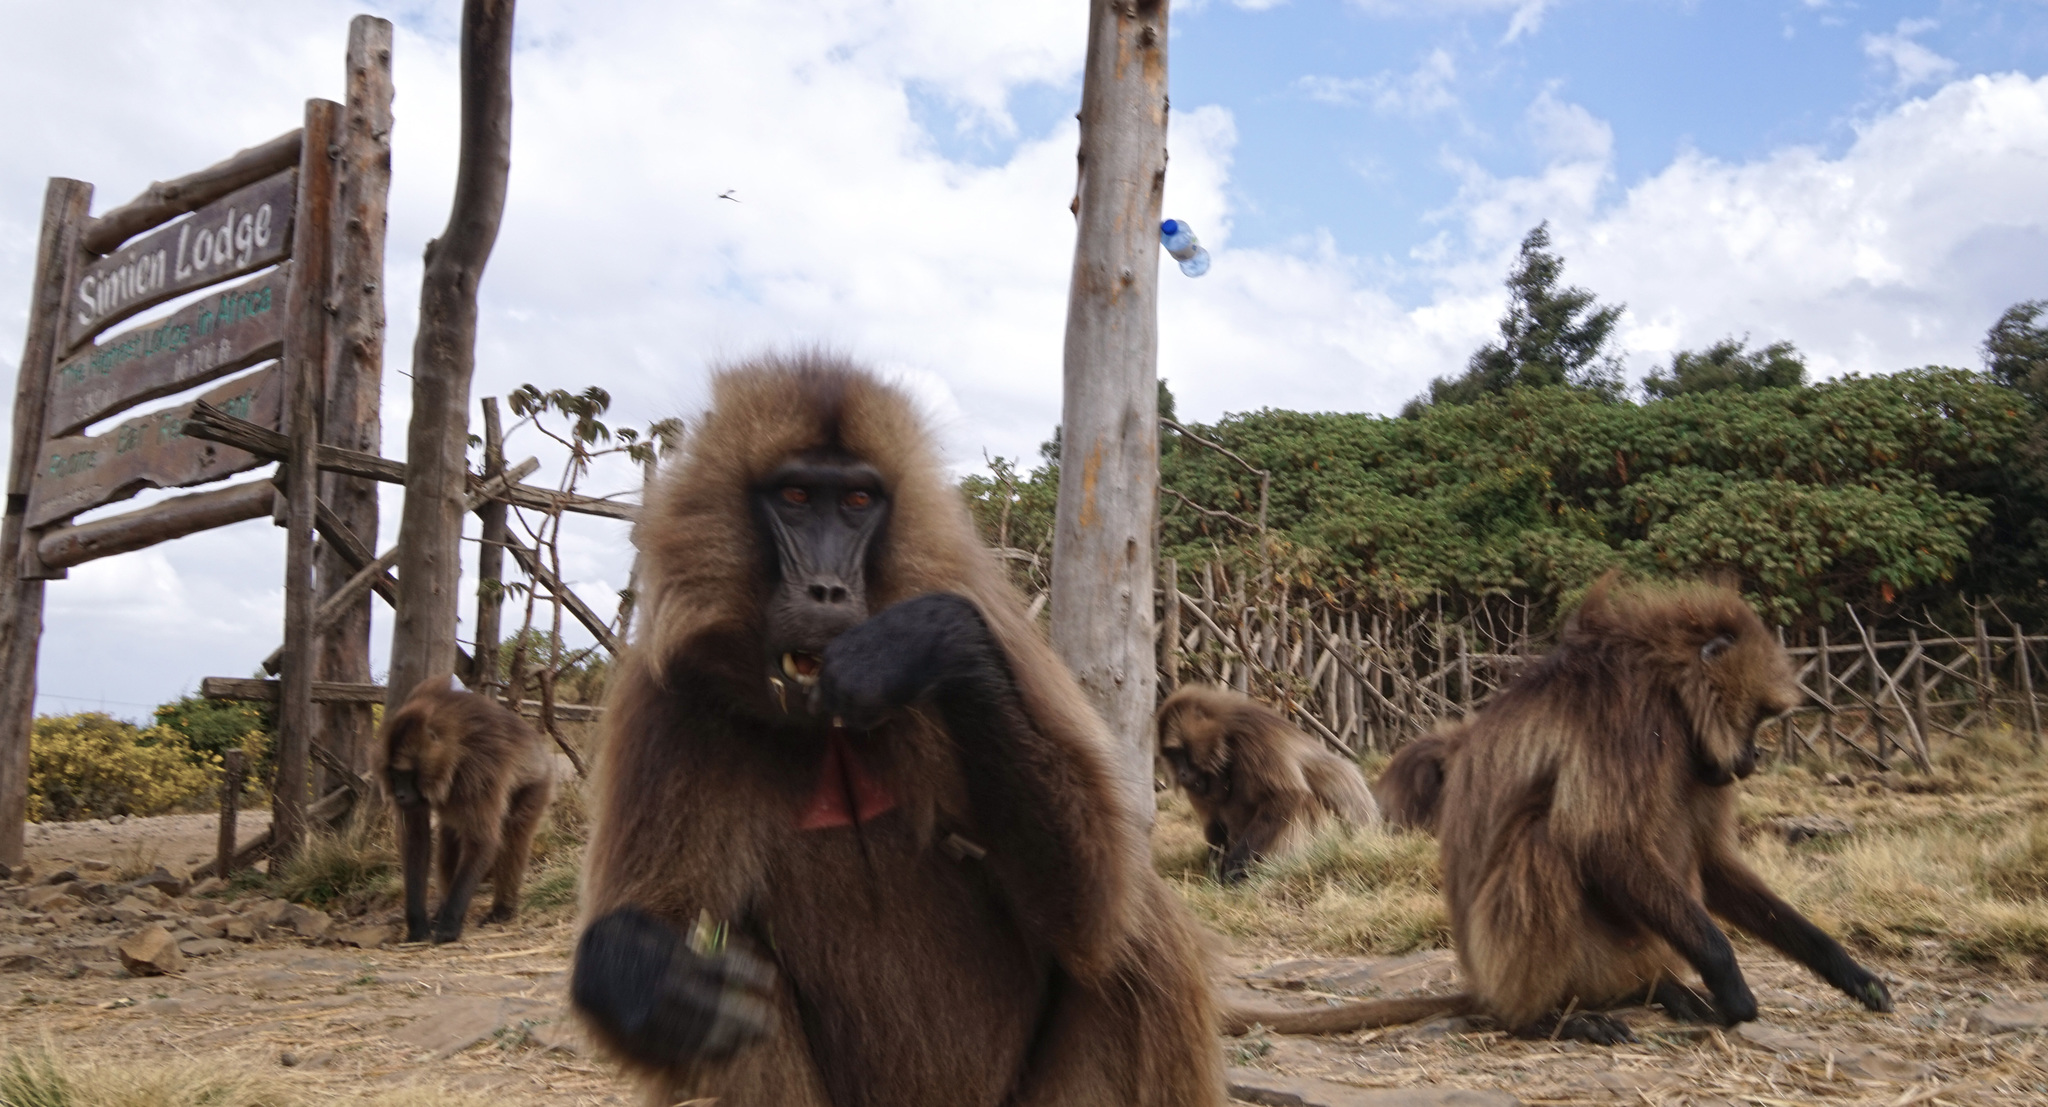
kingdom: Animalia
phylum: Chordata
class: Mammalia
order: Primates
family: Cercopithecidae
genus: Theropithecus
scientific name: Theropithecus gelada
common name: Gelada
